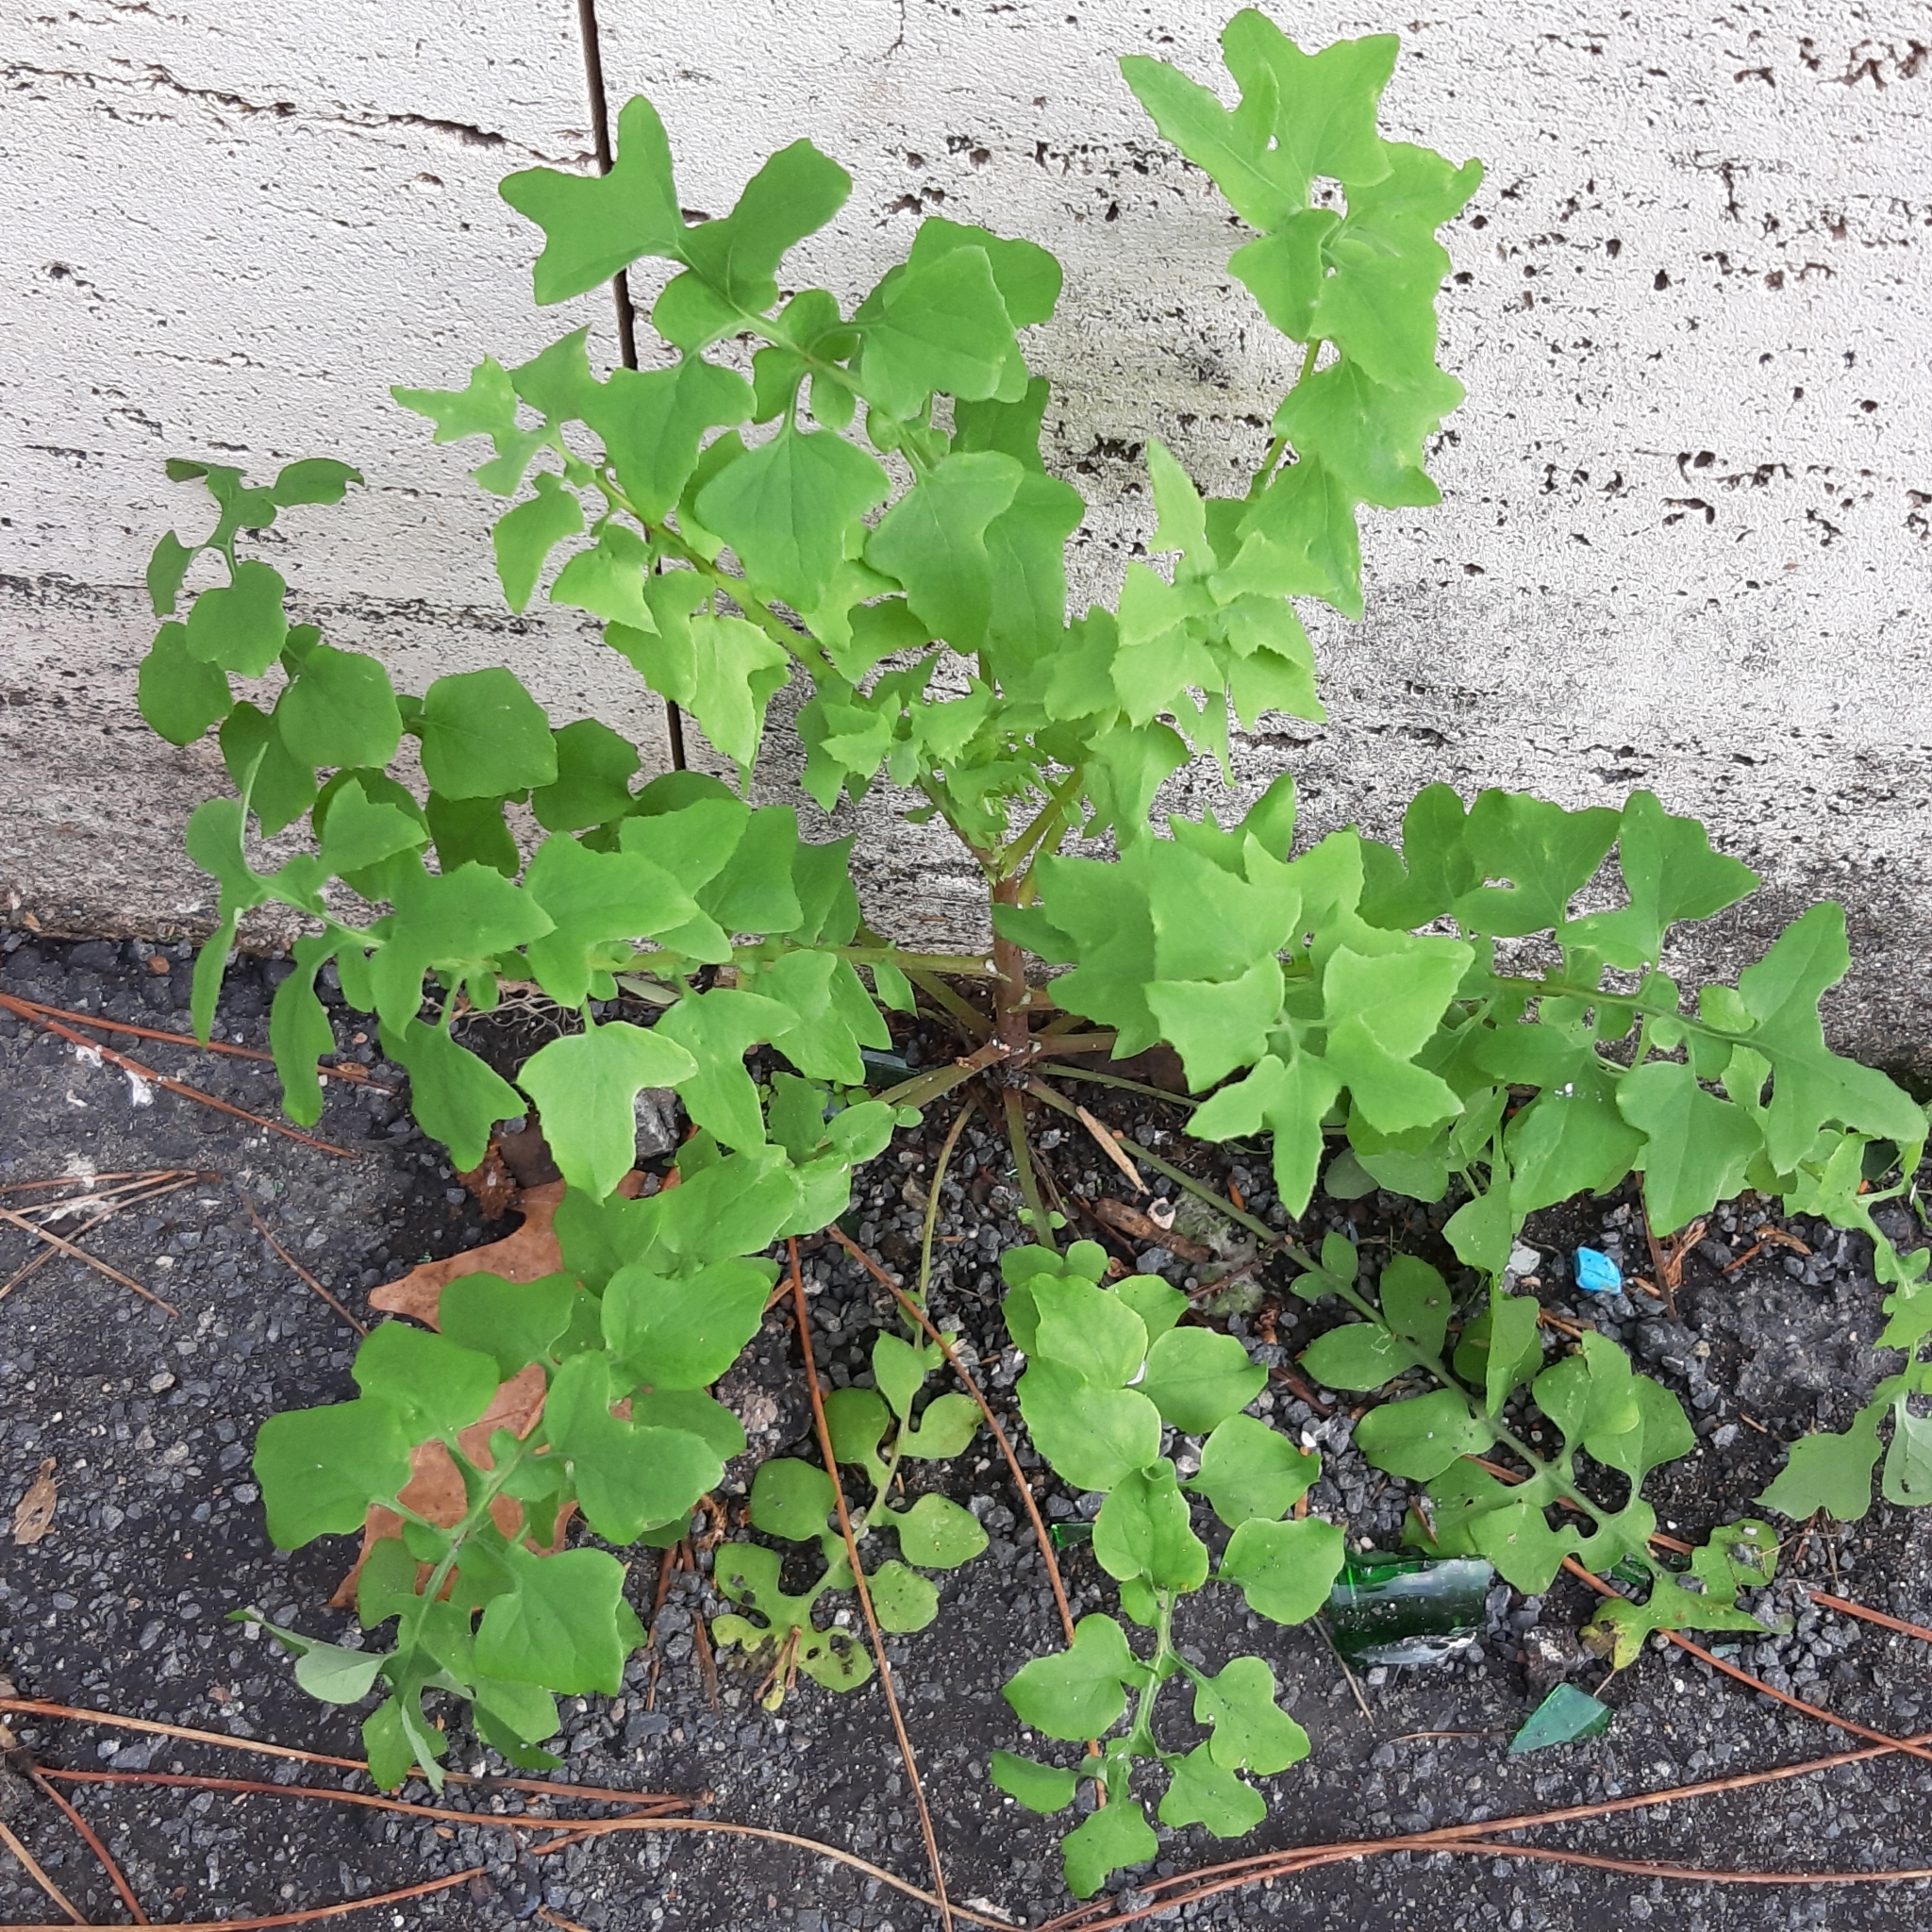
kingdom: Plantae
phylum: Tracheophyta
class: Magnoliopsida
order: Asterales
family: Asteraceae
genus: Sonchus
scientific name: Sonchus tenerrimus
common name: Clammy sowthistle
